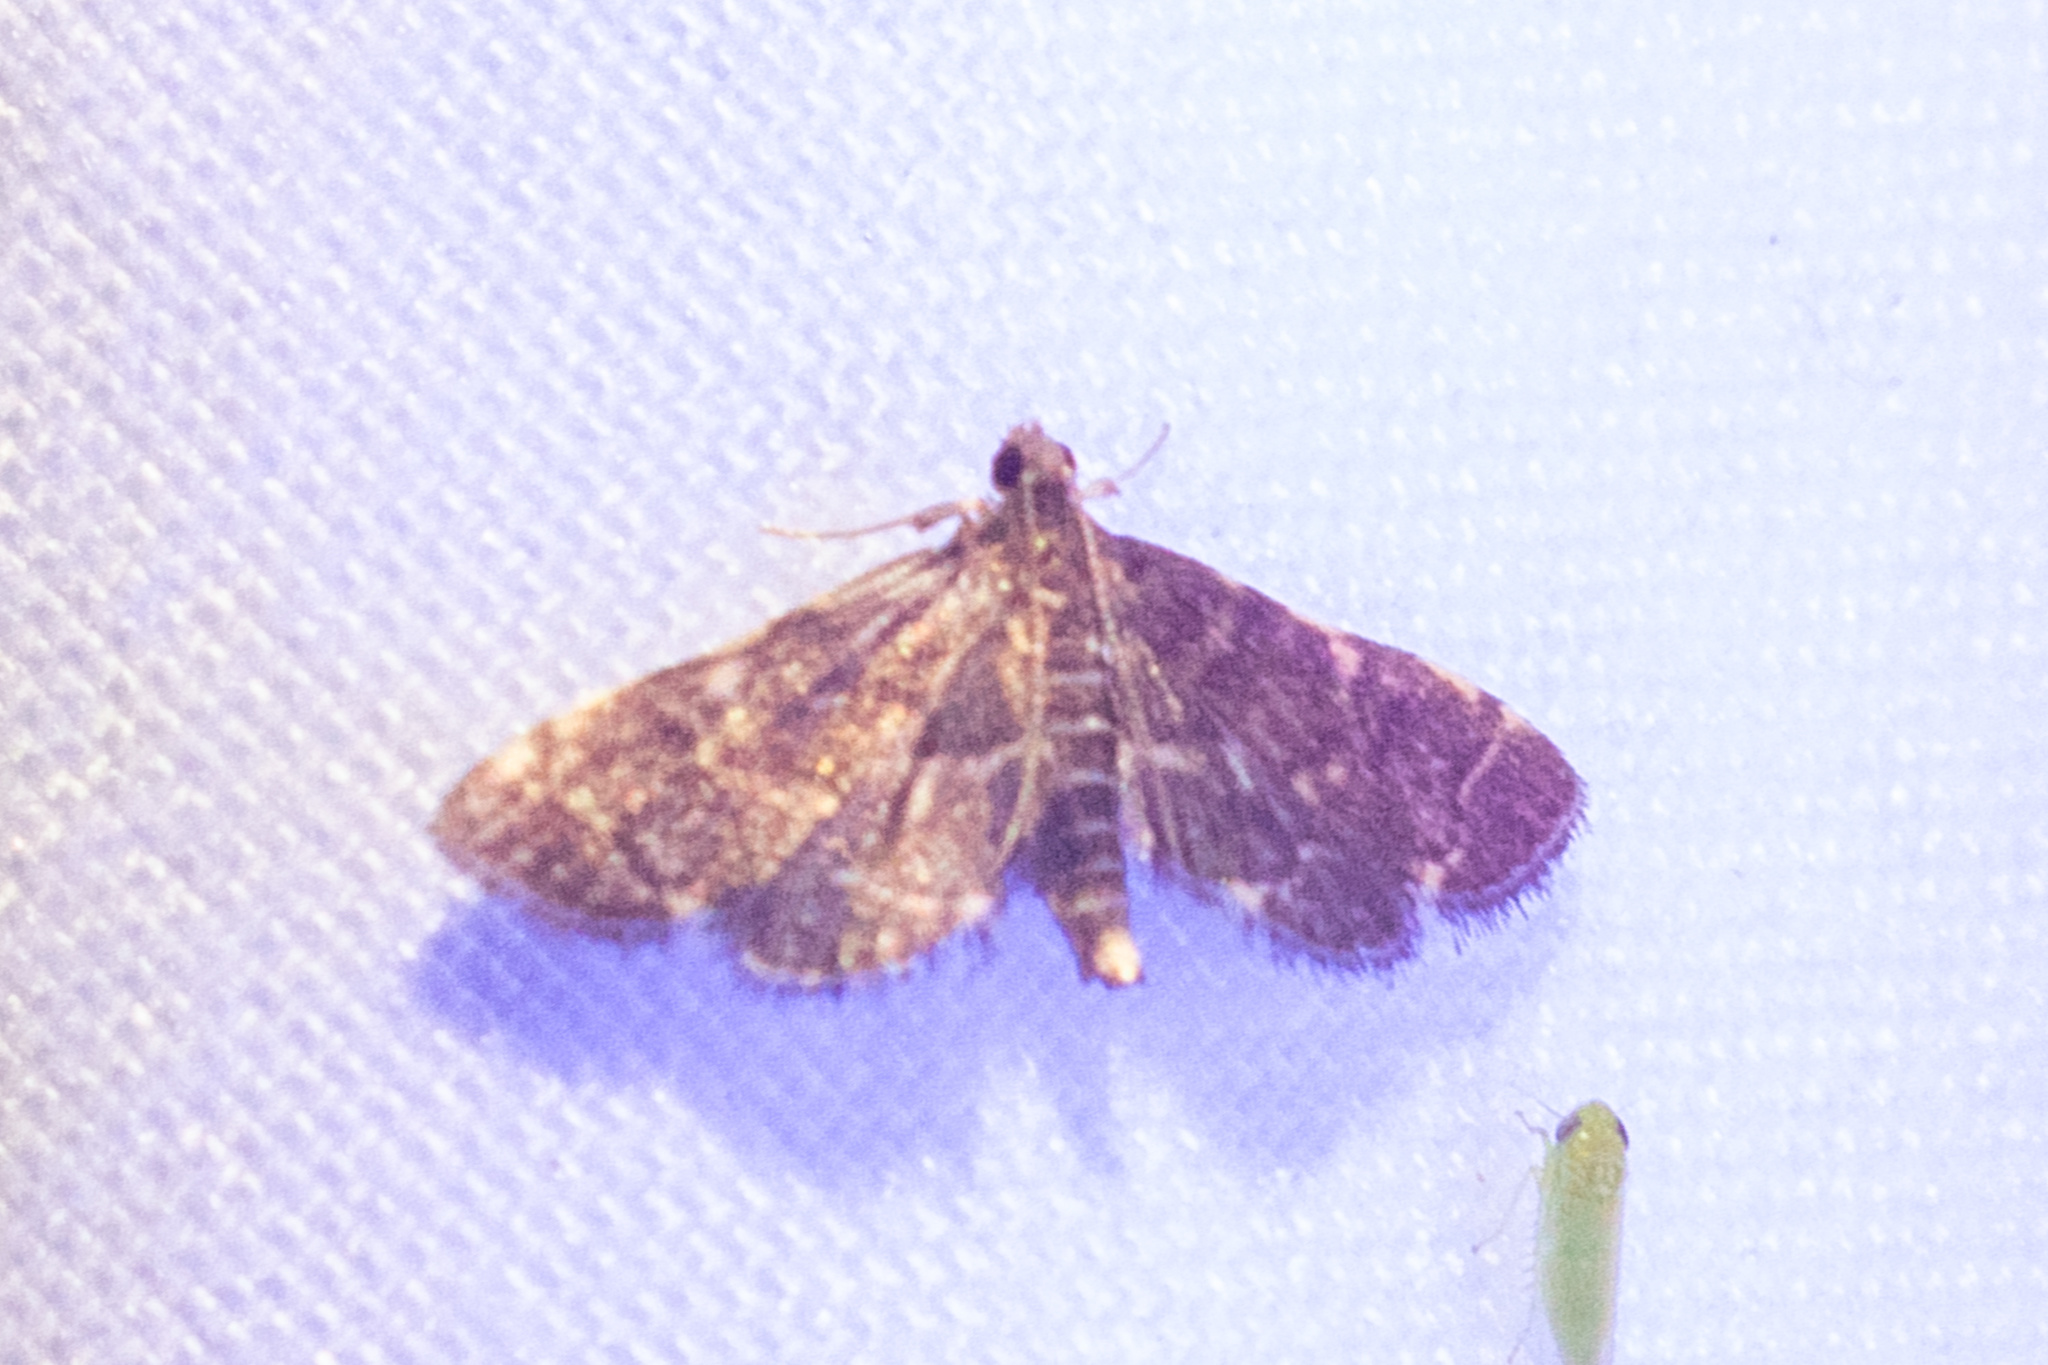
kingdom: Animalia
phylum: Arthropoda
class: Insecta
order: Lepidoptera
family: Crambidae
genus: Anageshna
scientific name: Anageshna primordialis
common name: Yellow-spotted webworm moth
